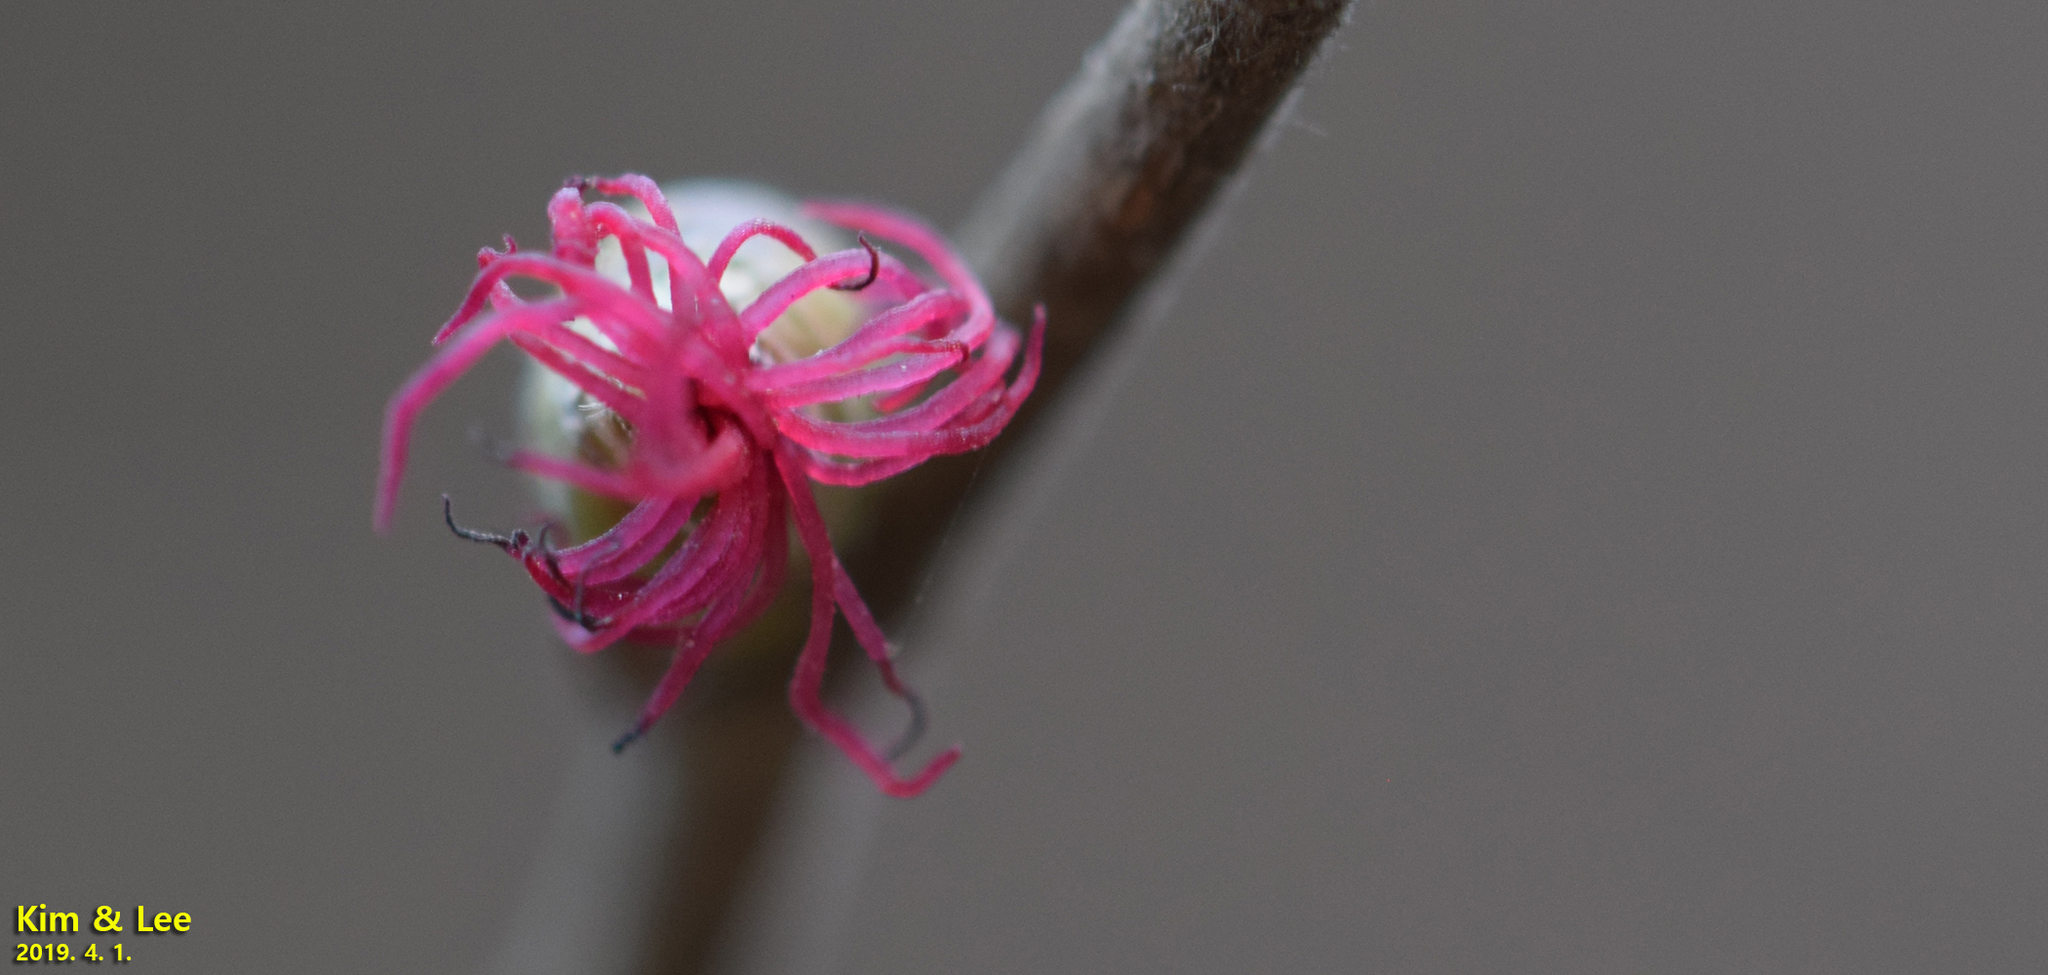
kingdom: Plantae
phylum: Tracheophyta
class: Magnoliopsida
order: Fagales
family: Betulaceae
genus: Corylus
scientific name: Corylus heterophylla
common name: Siberian hazelnut
